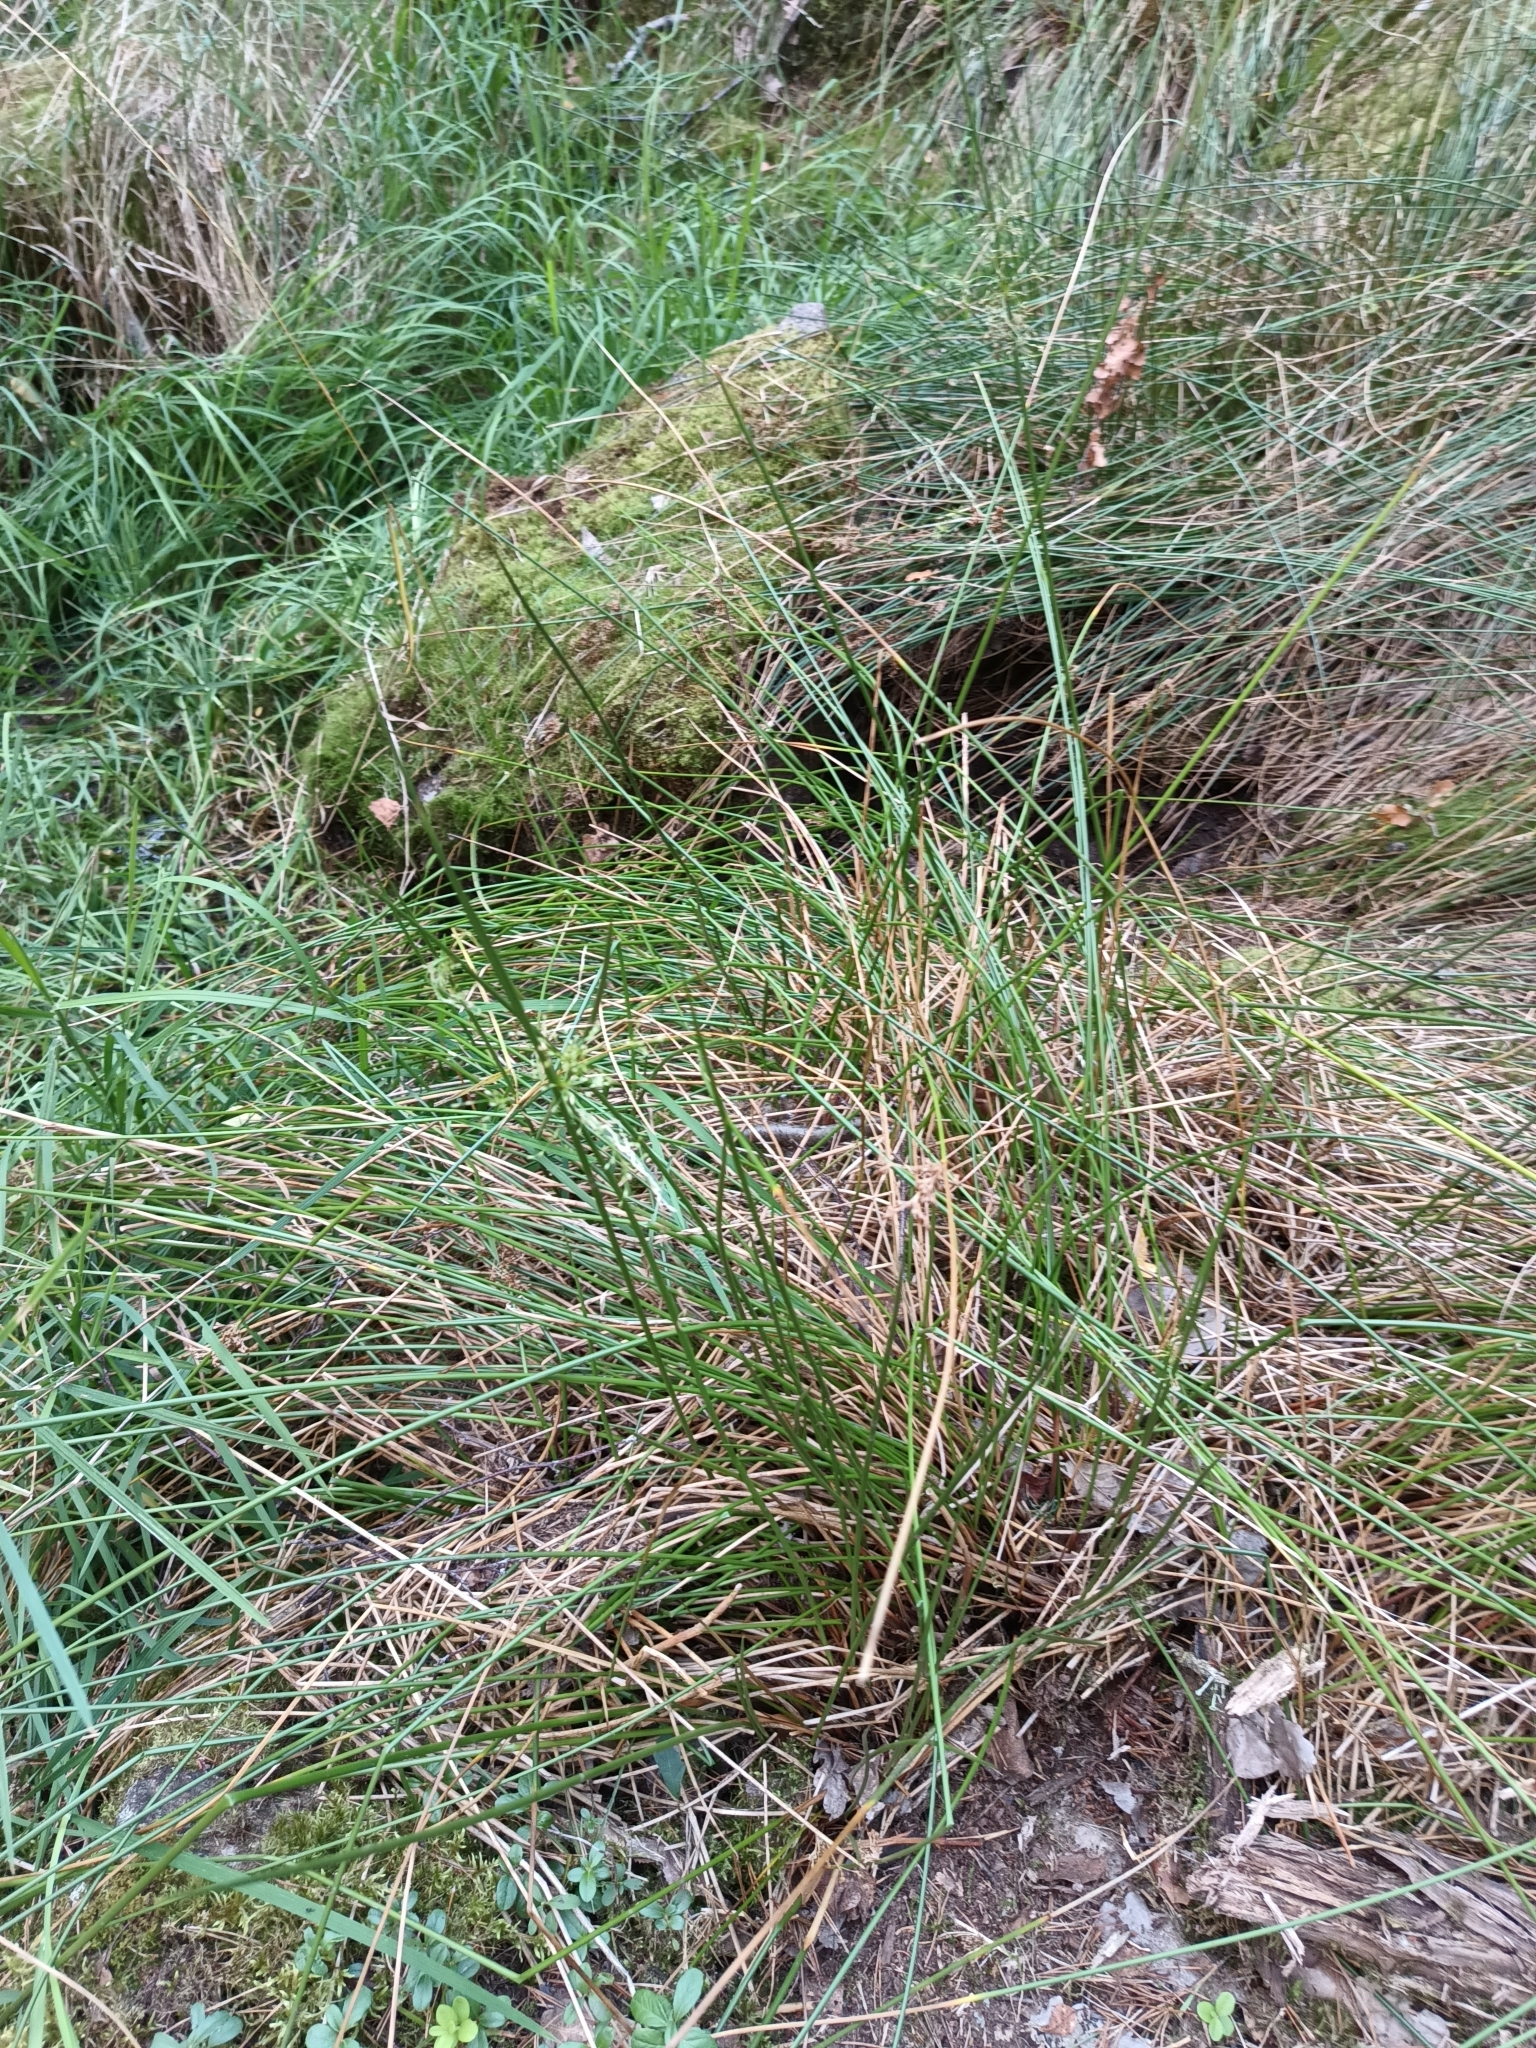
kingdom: Plantae
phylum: Tracheophyta
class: Liliopsida
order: Poales
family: Juncaceae
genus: Juncus
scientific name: Juncus effusus
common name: Soft rush
